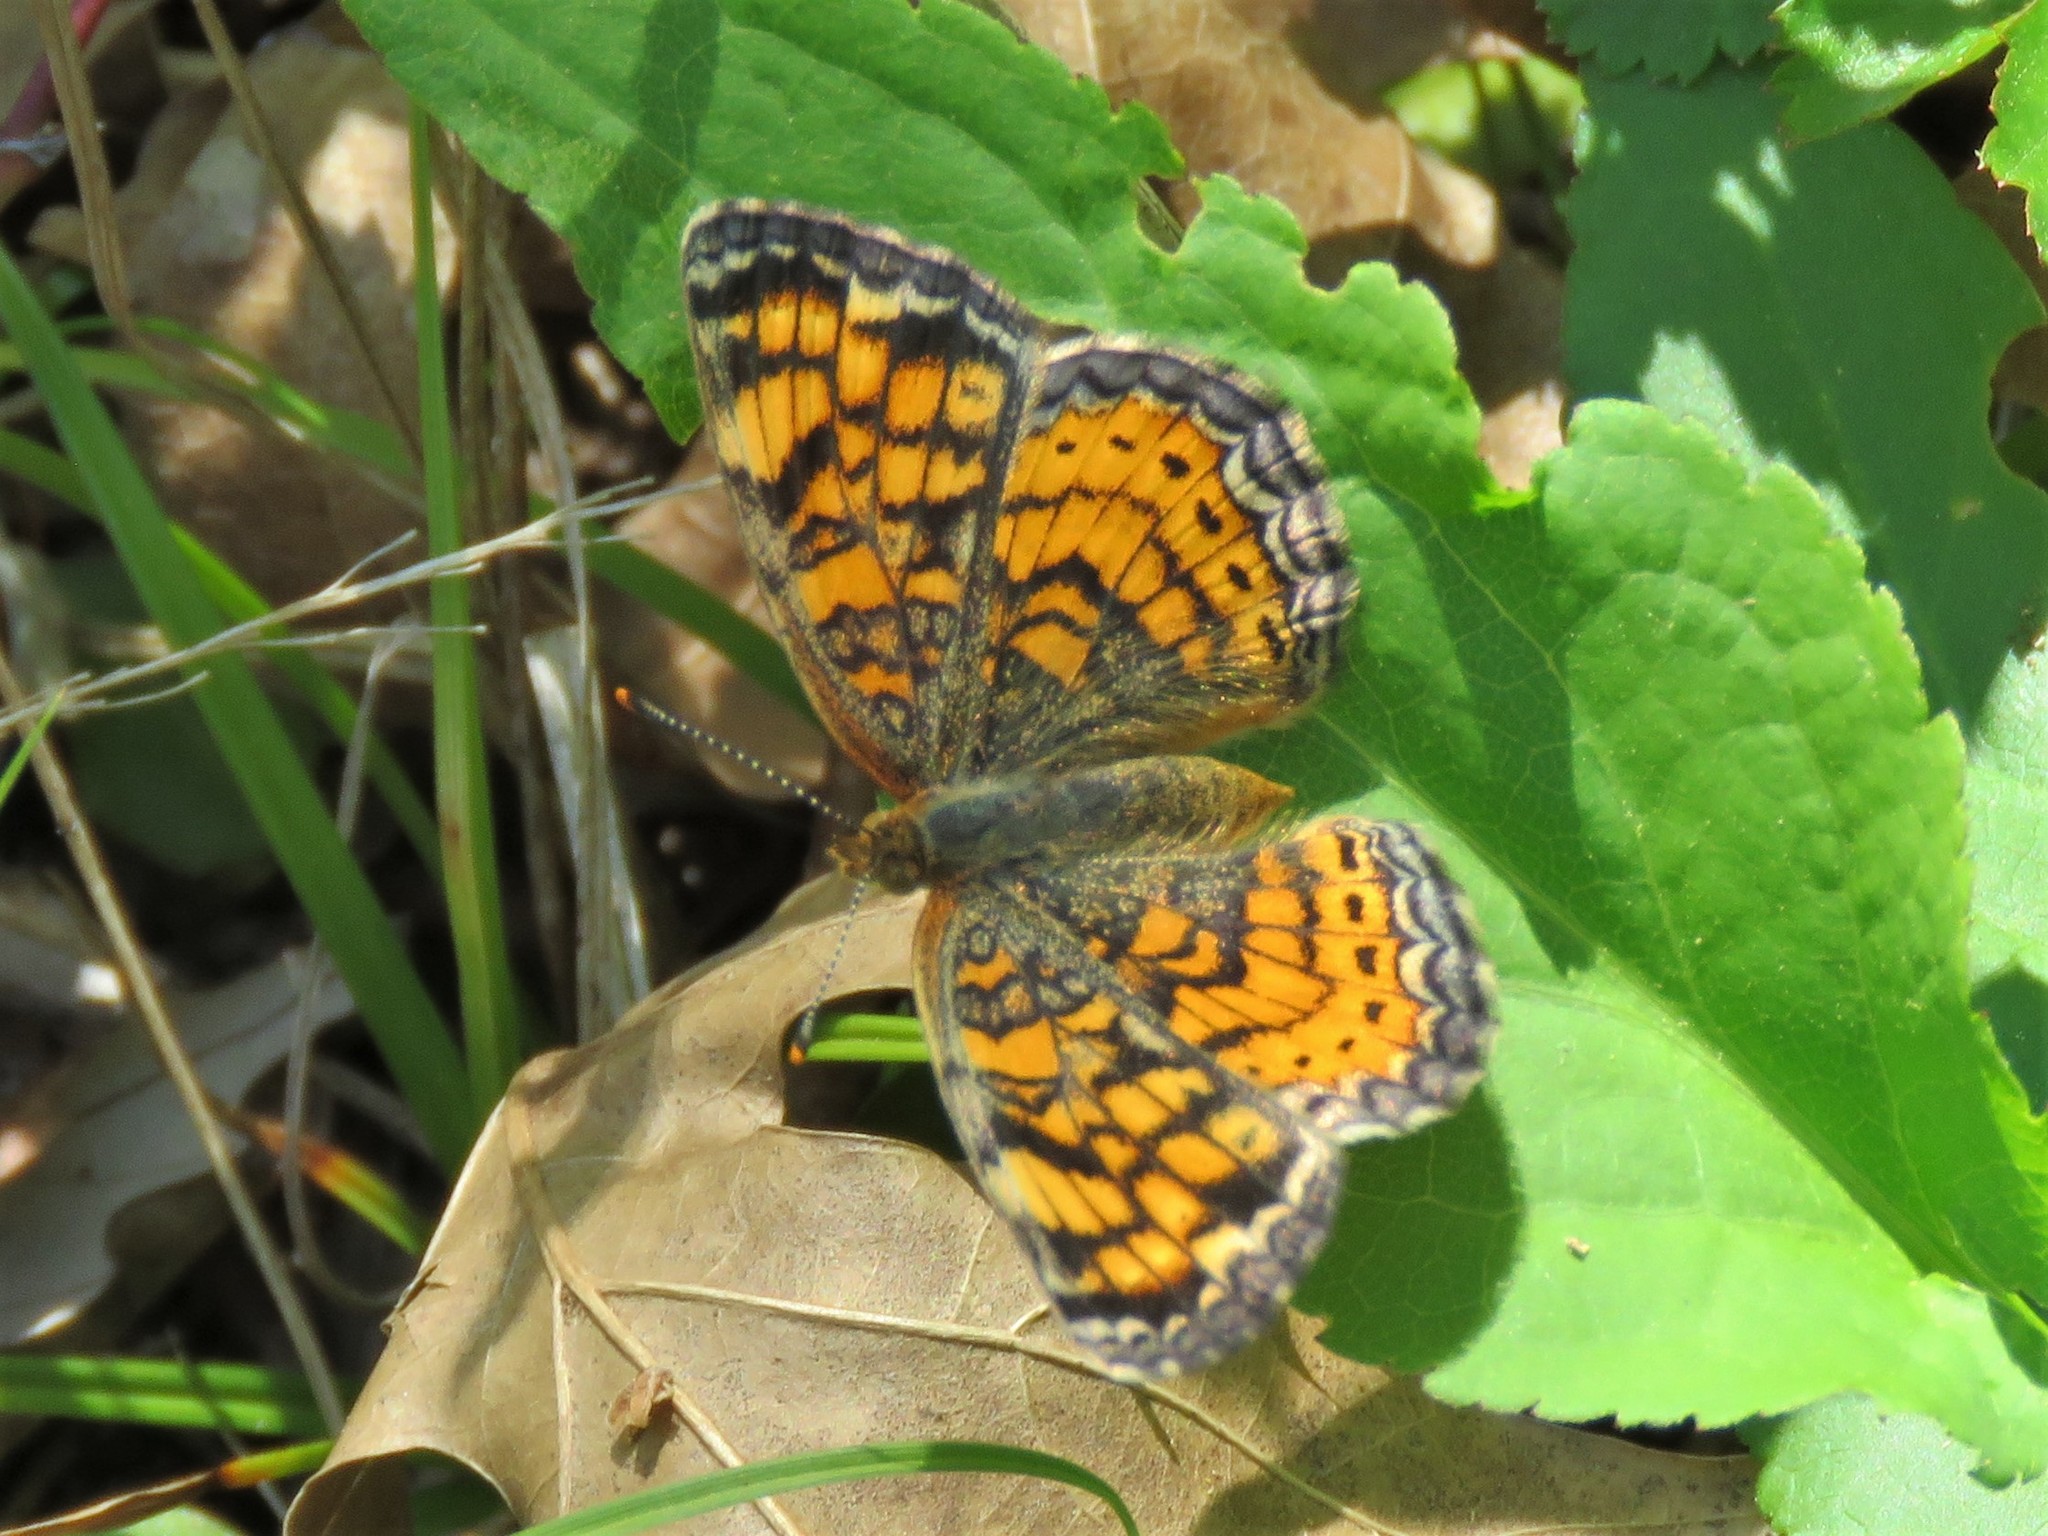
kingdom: Animalia
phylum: Arthropoda
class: Insecta
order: Lepidoptera
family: Nymphalidae
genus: Phyciodes
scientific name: Phyciodes tharos
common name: Pearl crescent
